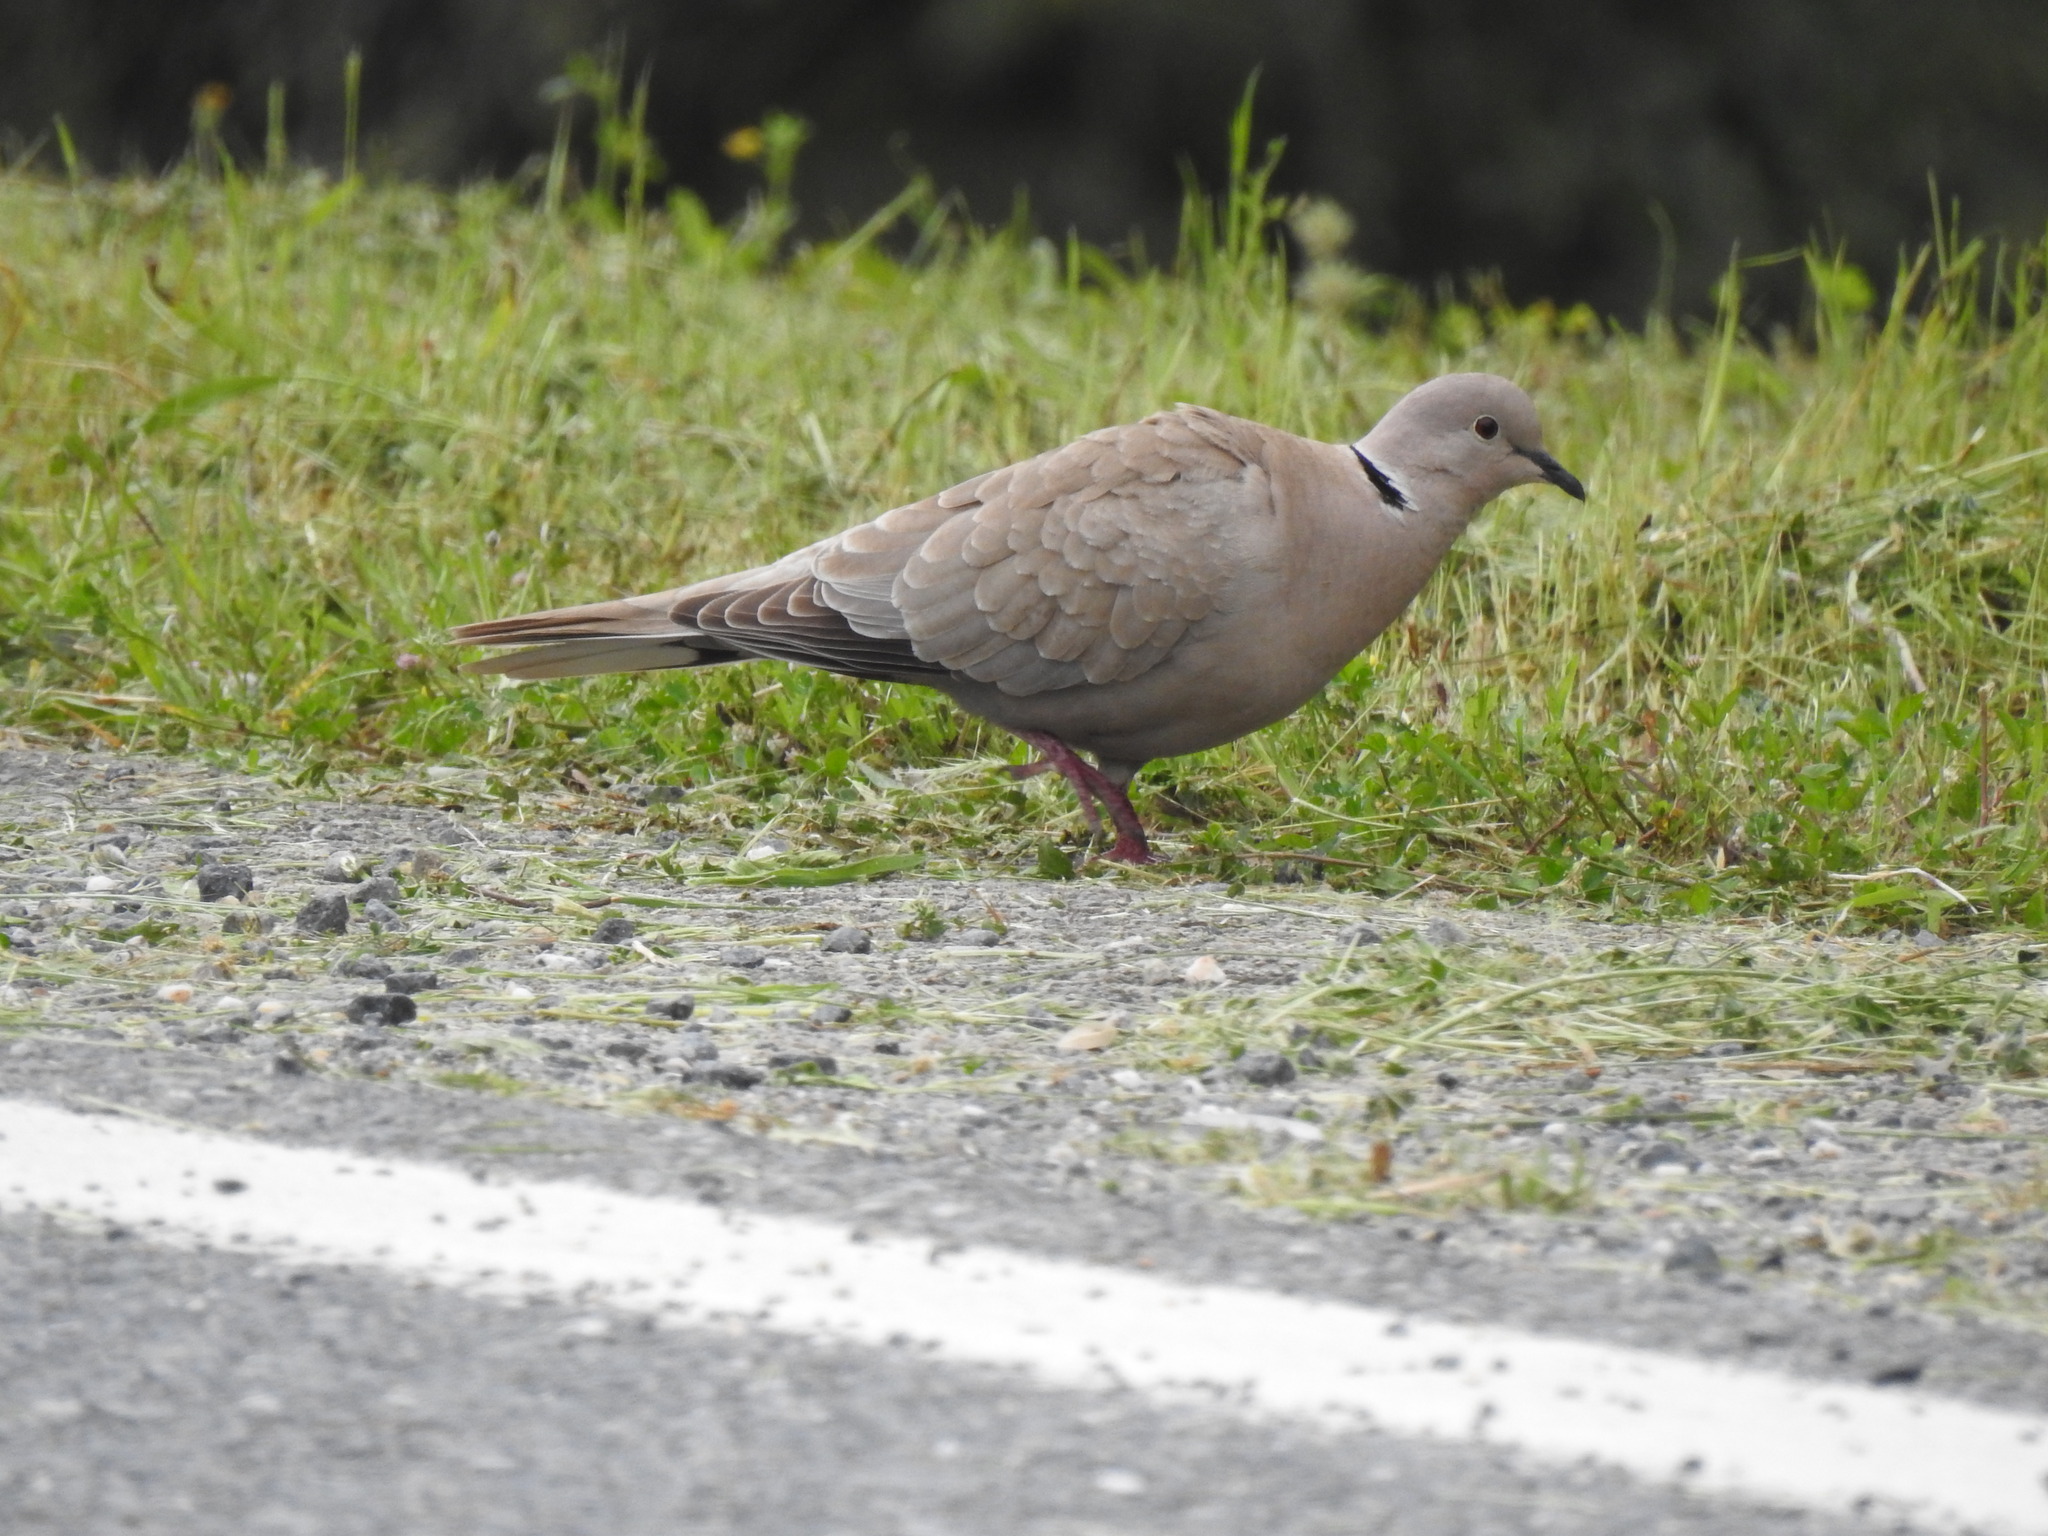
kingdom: Animalia
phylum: Chordata
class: Aves
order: Columbiformes
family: Columbidae
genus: Streptopelia
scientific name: Streptopelia decaocto
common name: Eurasian collared dove
